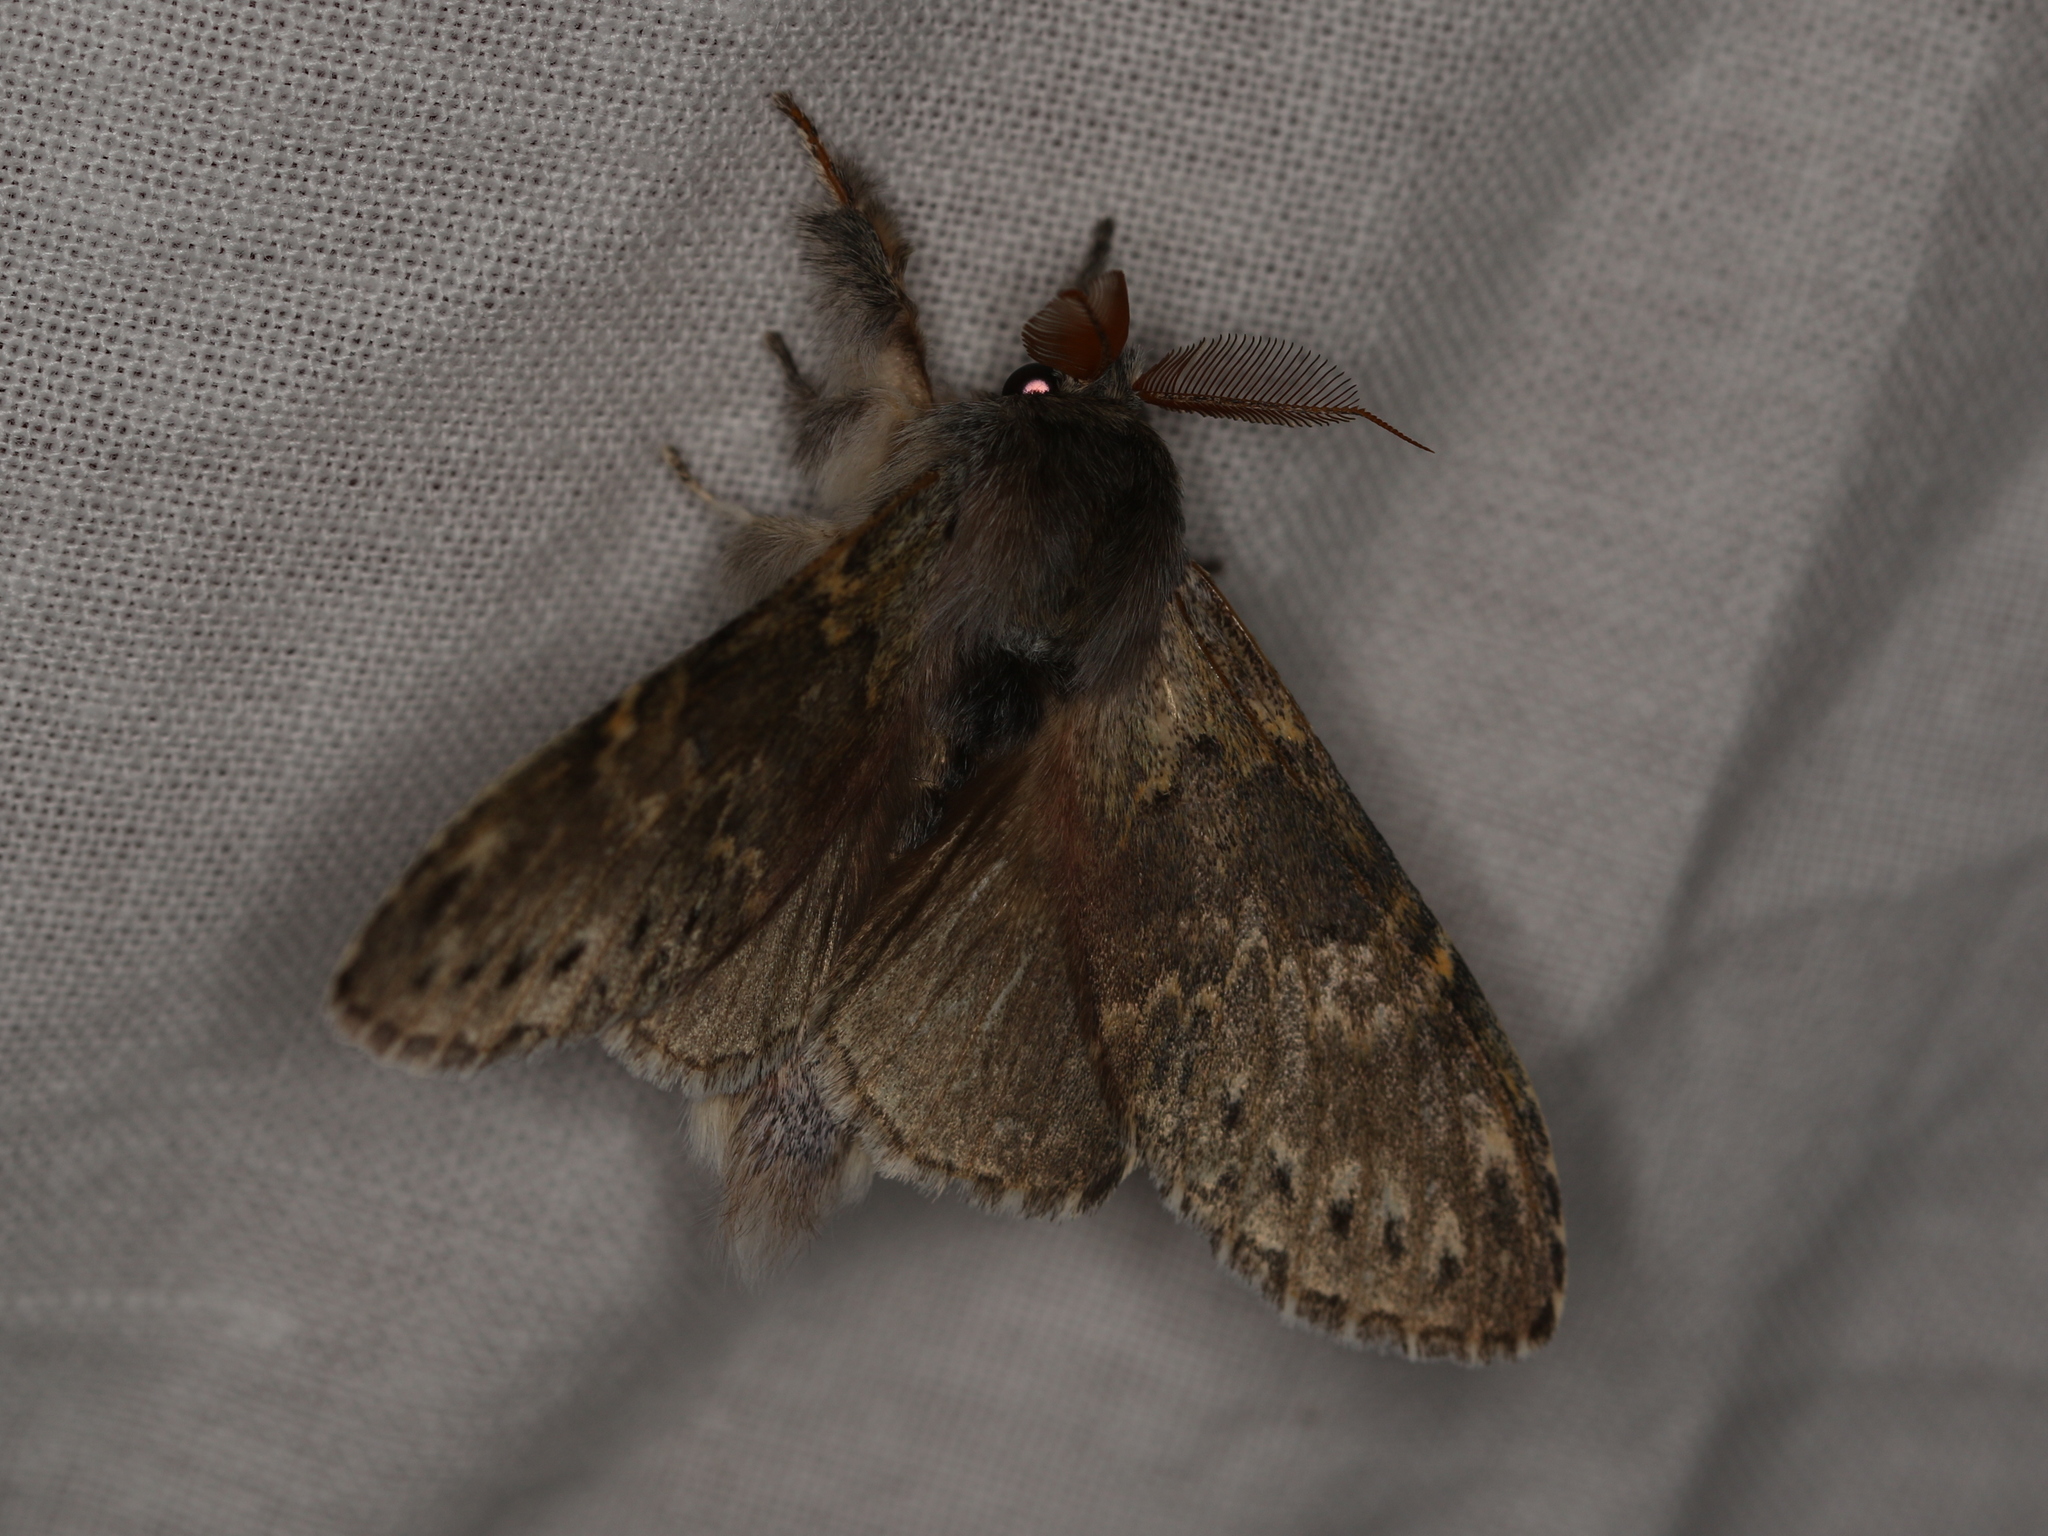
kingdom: Animalia
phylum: Arthropoda
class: Insecta
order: Lepidoptera
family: Notodontidae
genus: Stauropus
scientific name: Stauropus fagi
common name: Lobster moth
